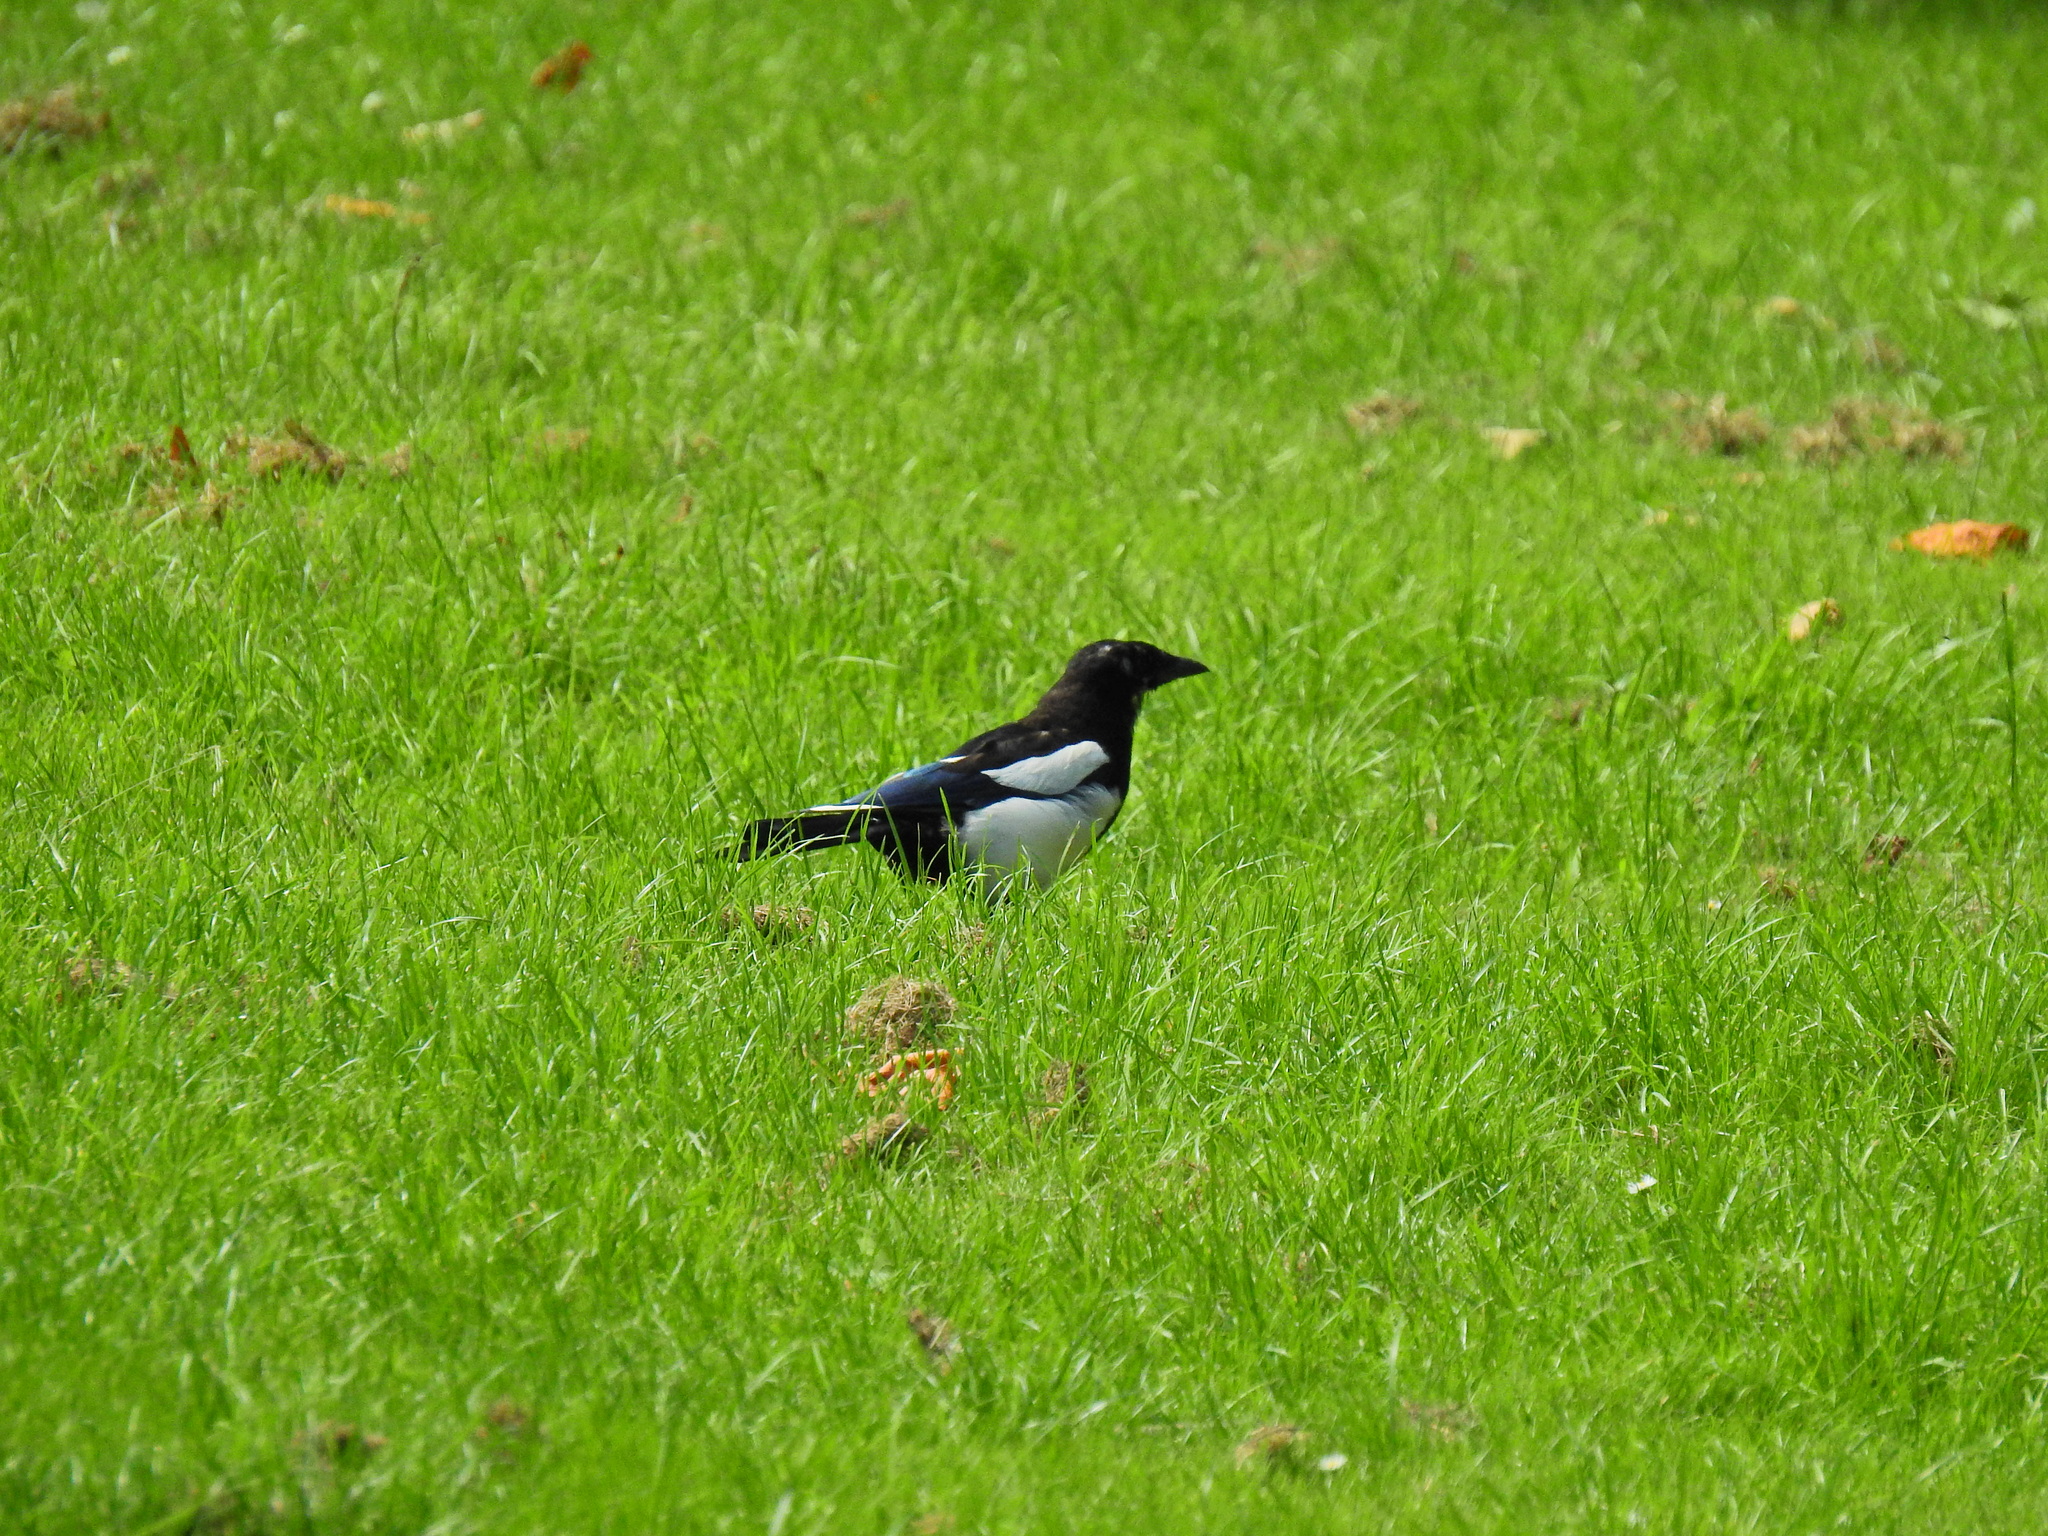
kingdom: Animalia
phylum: Chordata
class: Aves
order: Passeriformes
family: Corvidae
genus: Pica
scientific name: Pica pica
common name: Eurasian magpie
